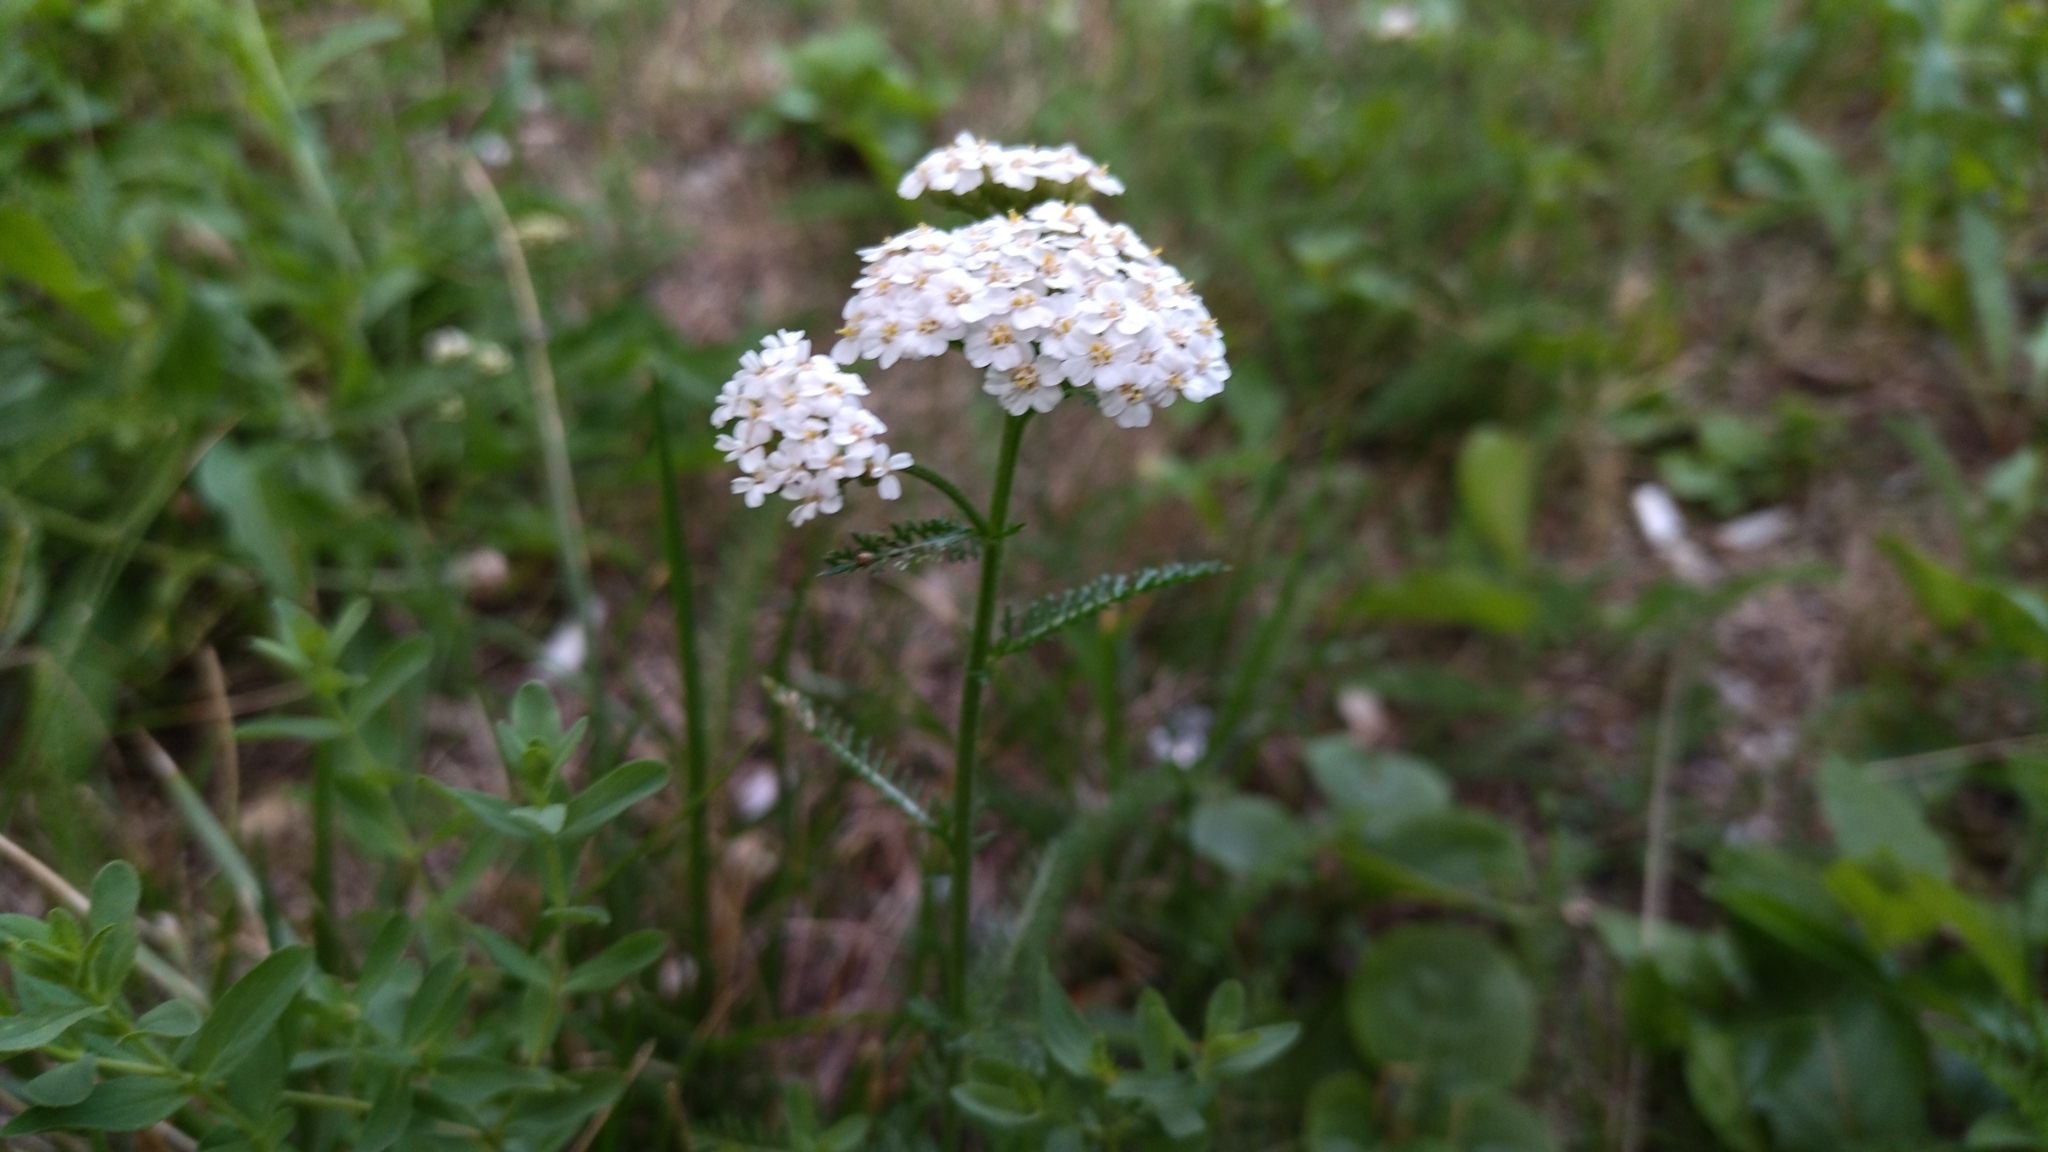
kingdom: Plantae
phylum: Tracheophyta
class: Magnoliopsida
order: Asterales
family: Asteraceae
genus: Achillea
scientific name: Achillea millefolium
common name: Yarrow
